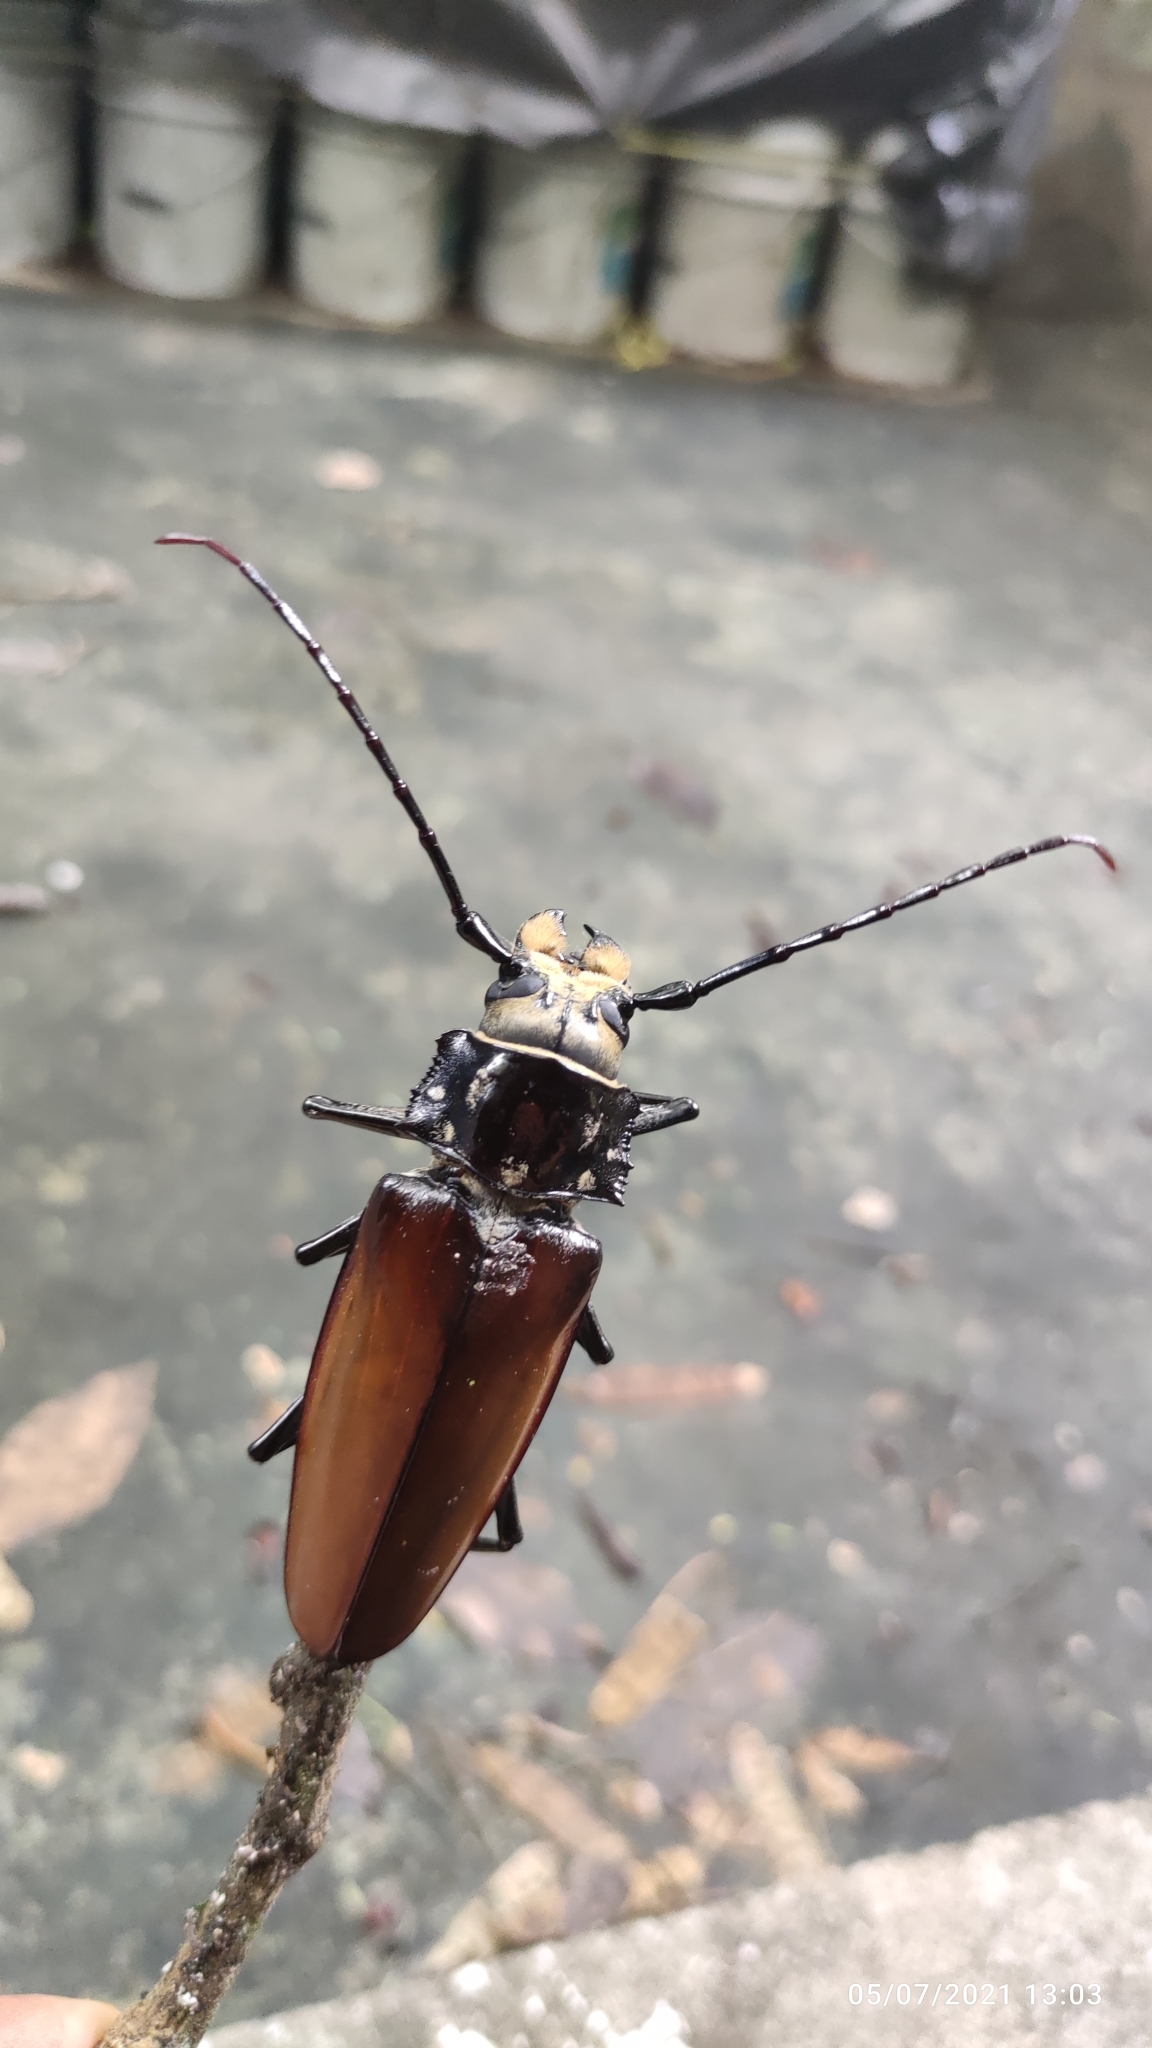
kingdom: Animalia
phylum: Arthropoda
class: Insecta
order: Coleoptera
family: Cerambycidae
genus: Callipogon
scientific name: Callipogon senex
